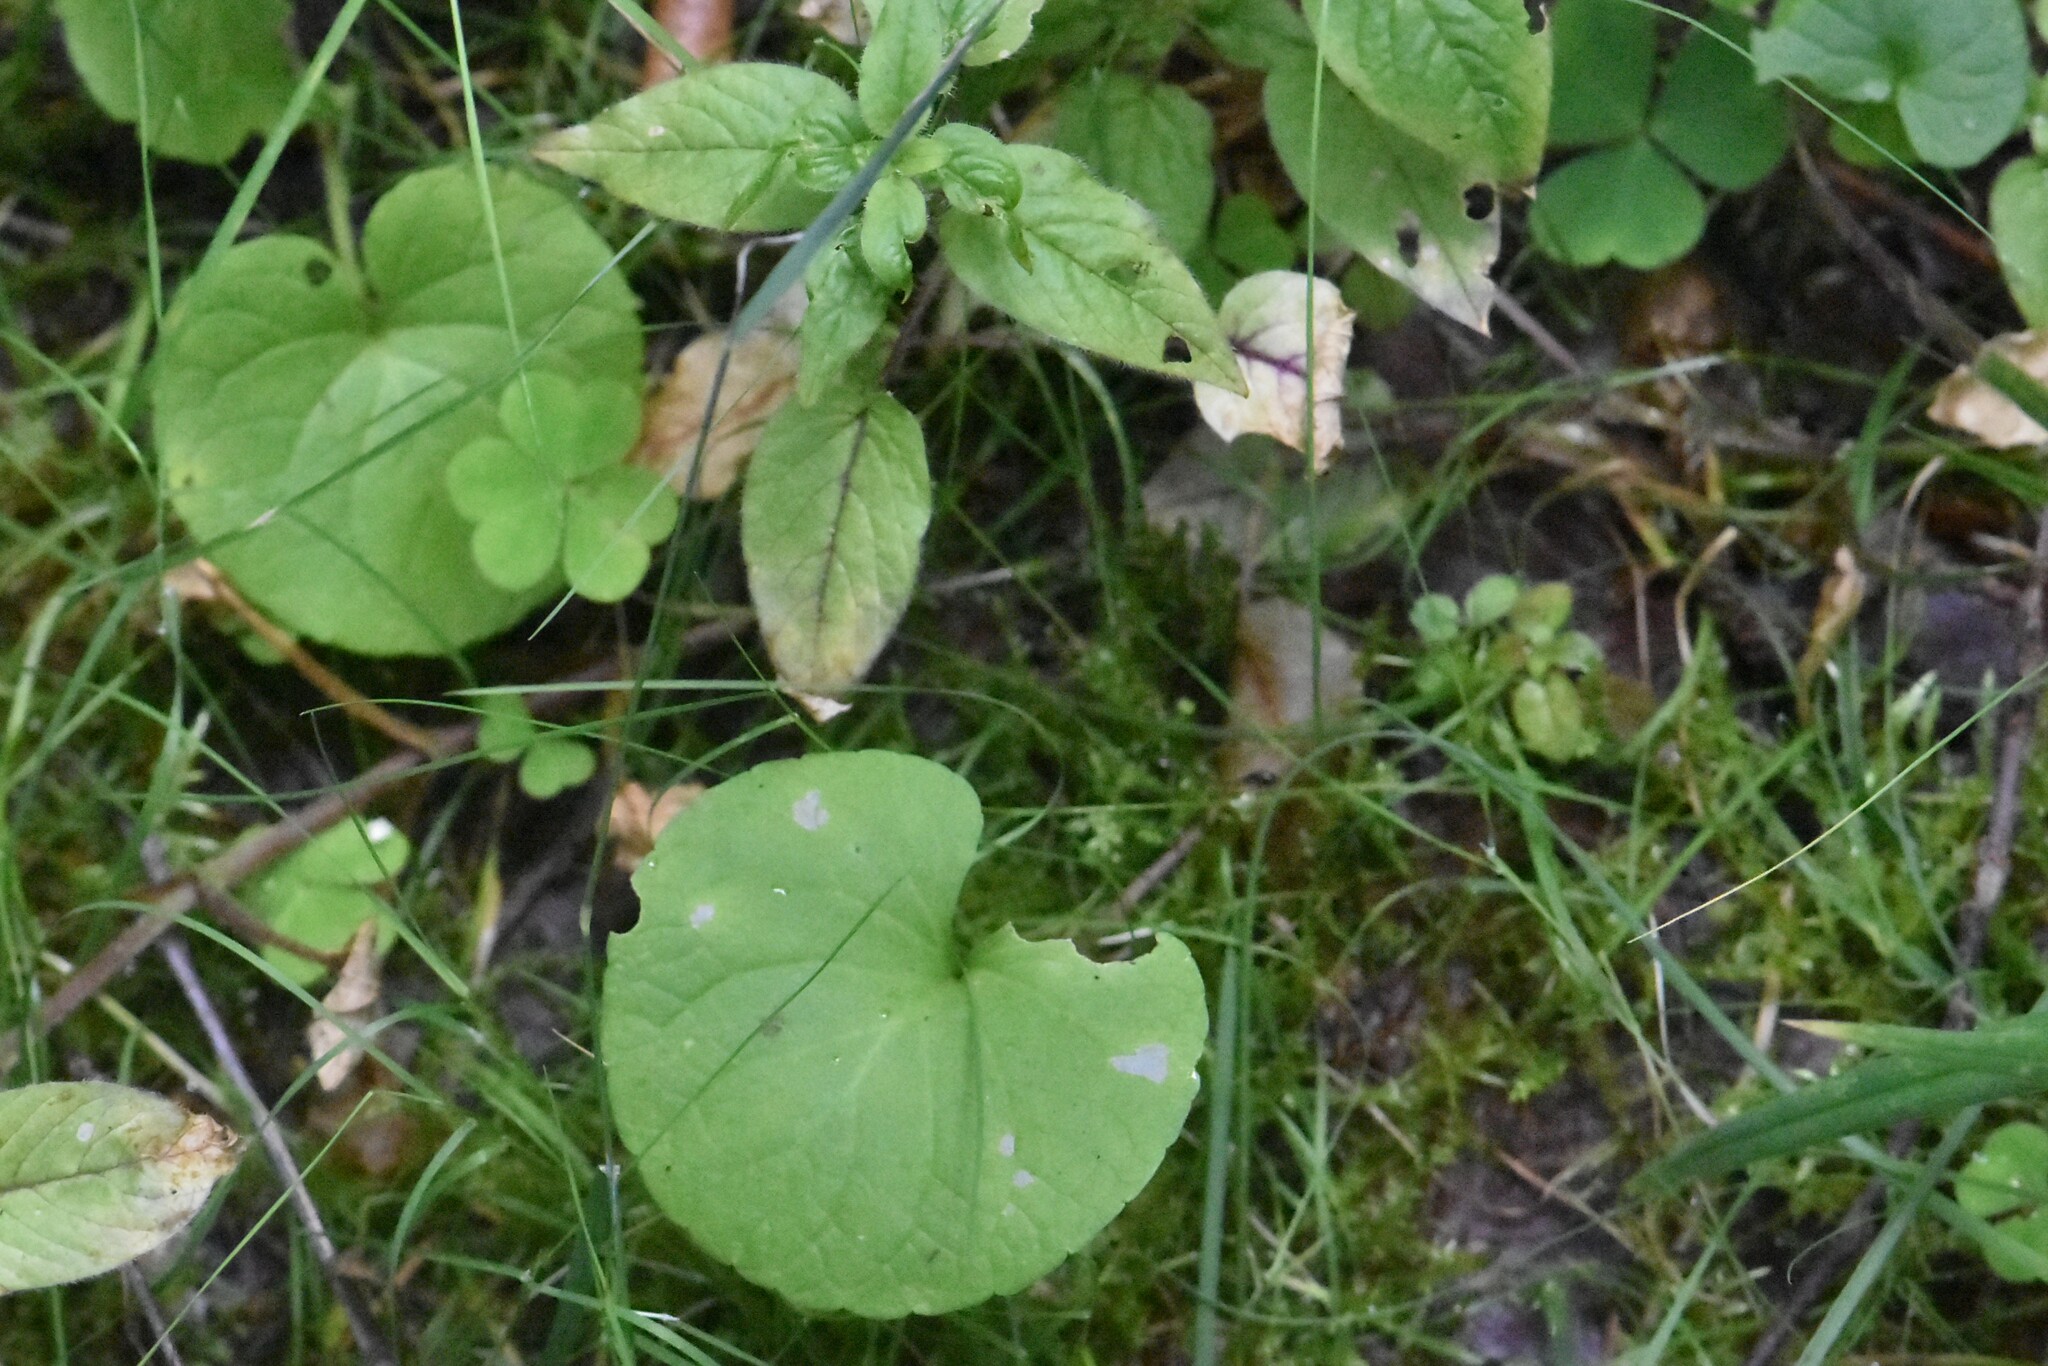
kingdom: Plantae
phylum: Tracheophyta
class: Magnoliopsida
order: Malpighiales
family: Violaceae
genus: Viola
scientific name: Viola palustris
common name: Marsh violet
